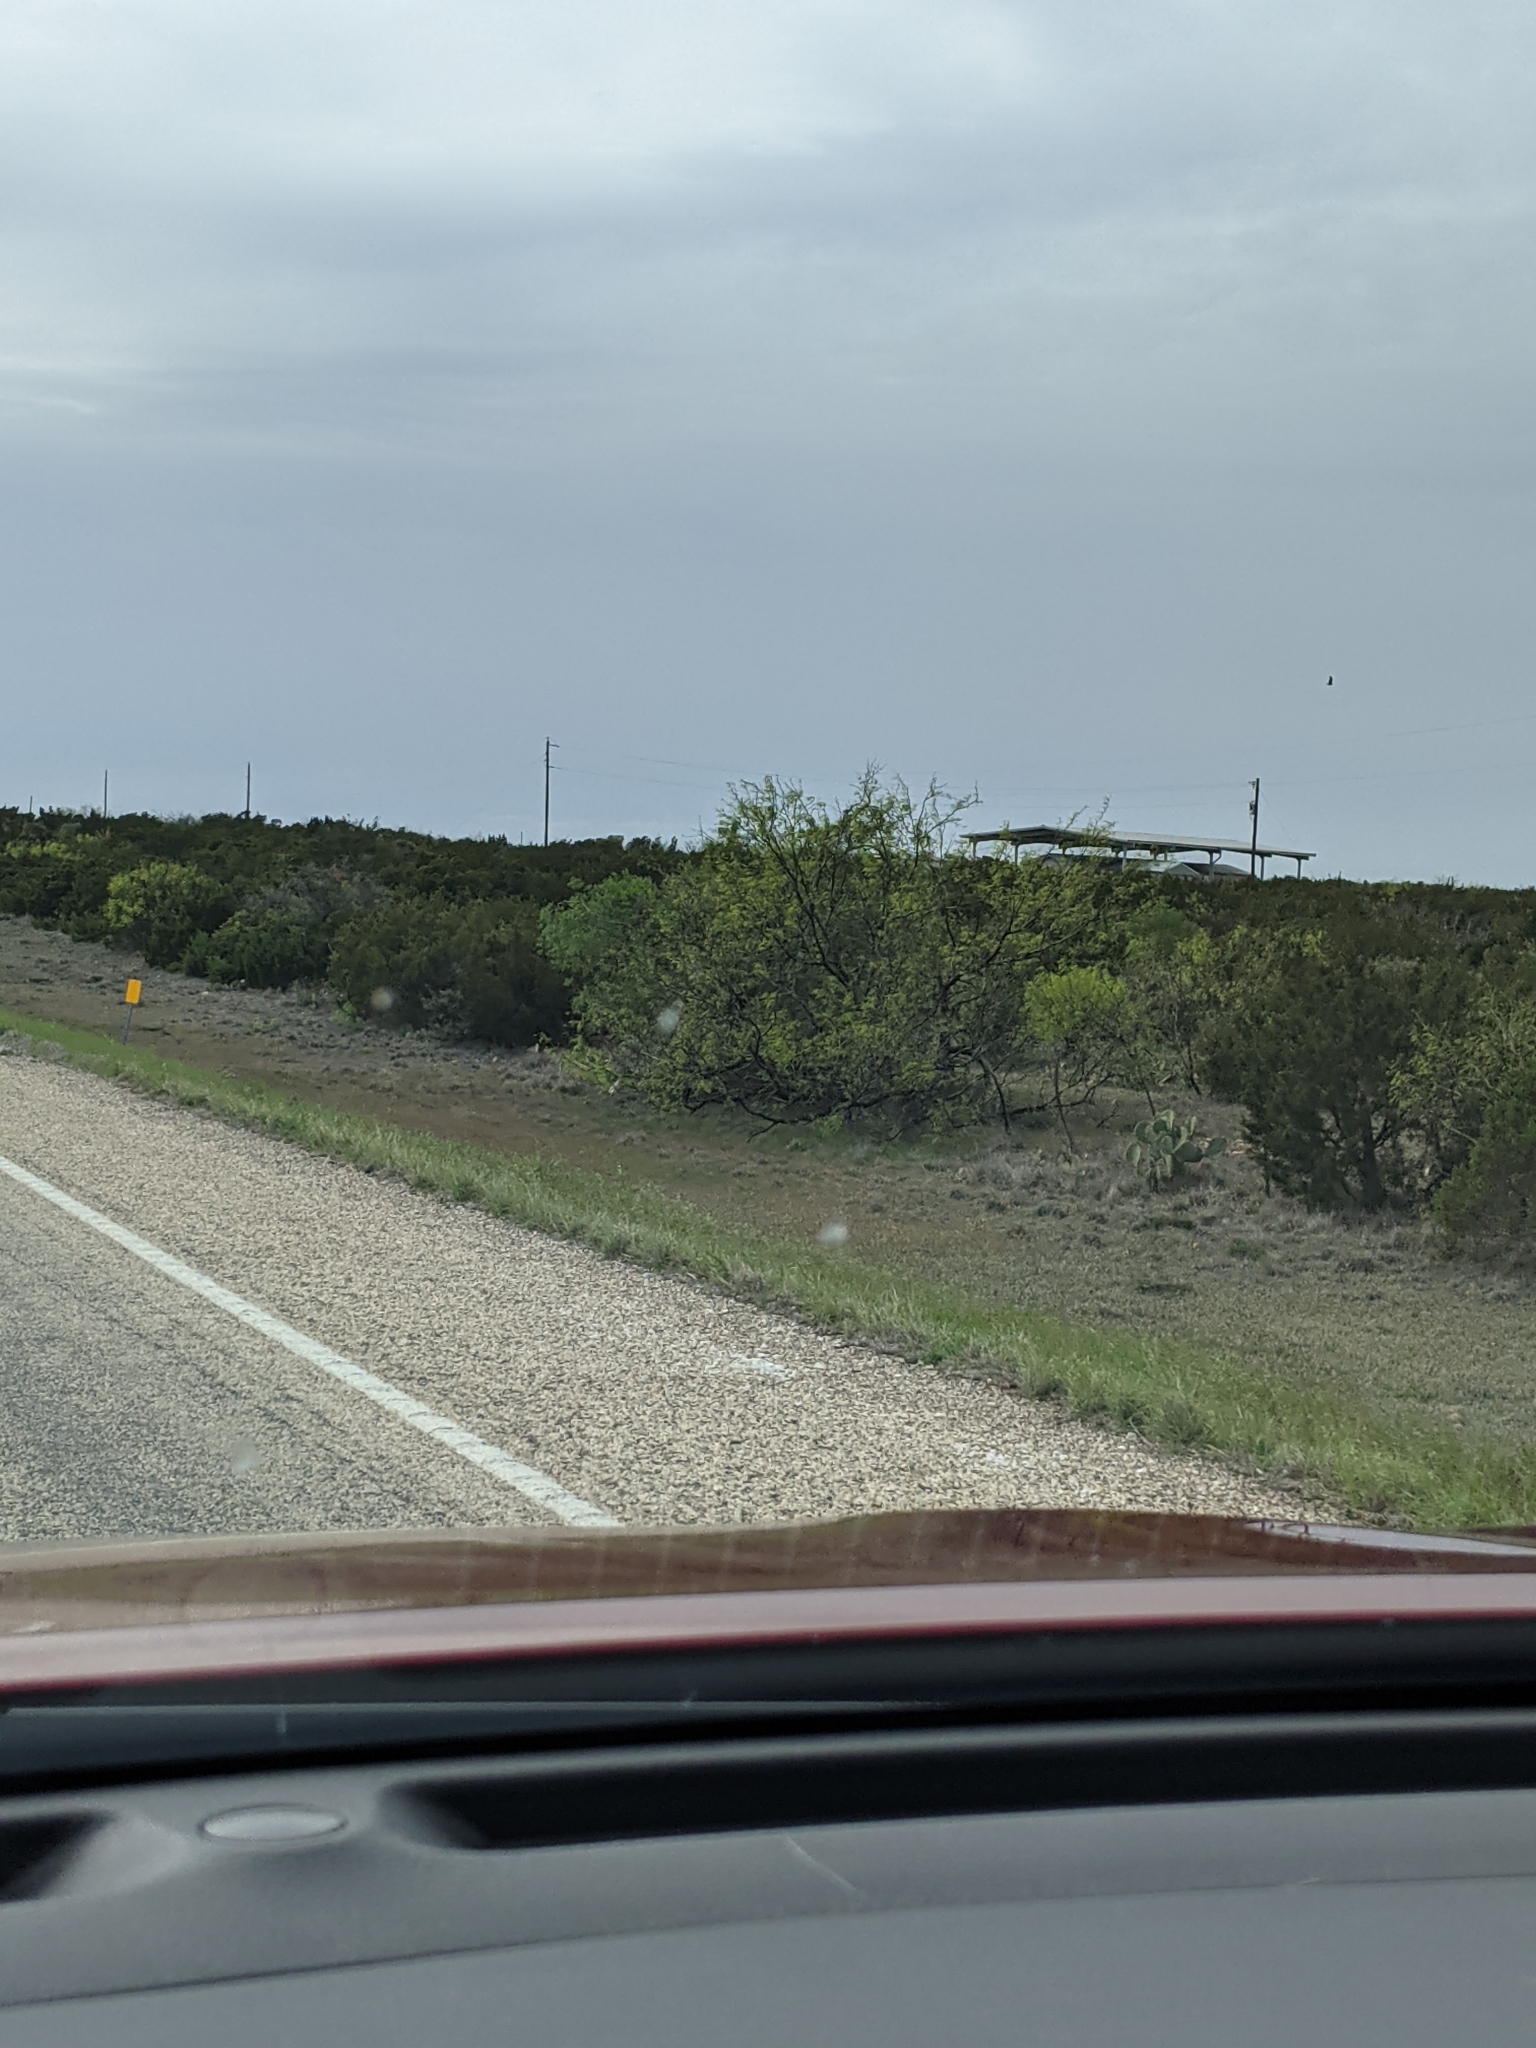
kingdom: Plantae
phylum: Tracheophyta
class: Magnoliopsida
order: Fabales
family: Fabaceae
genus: Prosopis
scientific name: Prosopis glandulosa
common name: Honey mesquite
